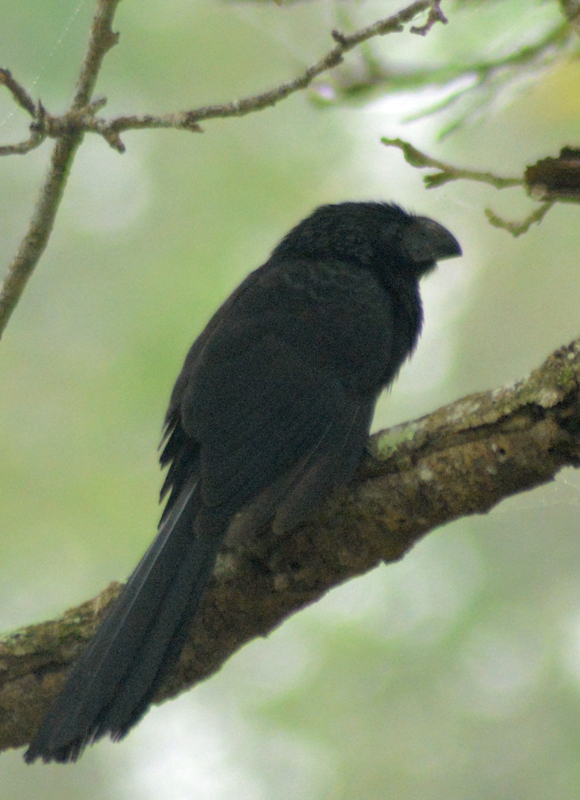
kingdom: Animalia
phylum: Chordata
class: Aves
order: Cuculiformes
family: Cuculidae
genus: Crotophaga
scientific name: Crotophaga sulcirostris
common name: Groove-billed ani
